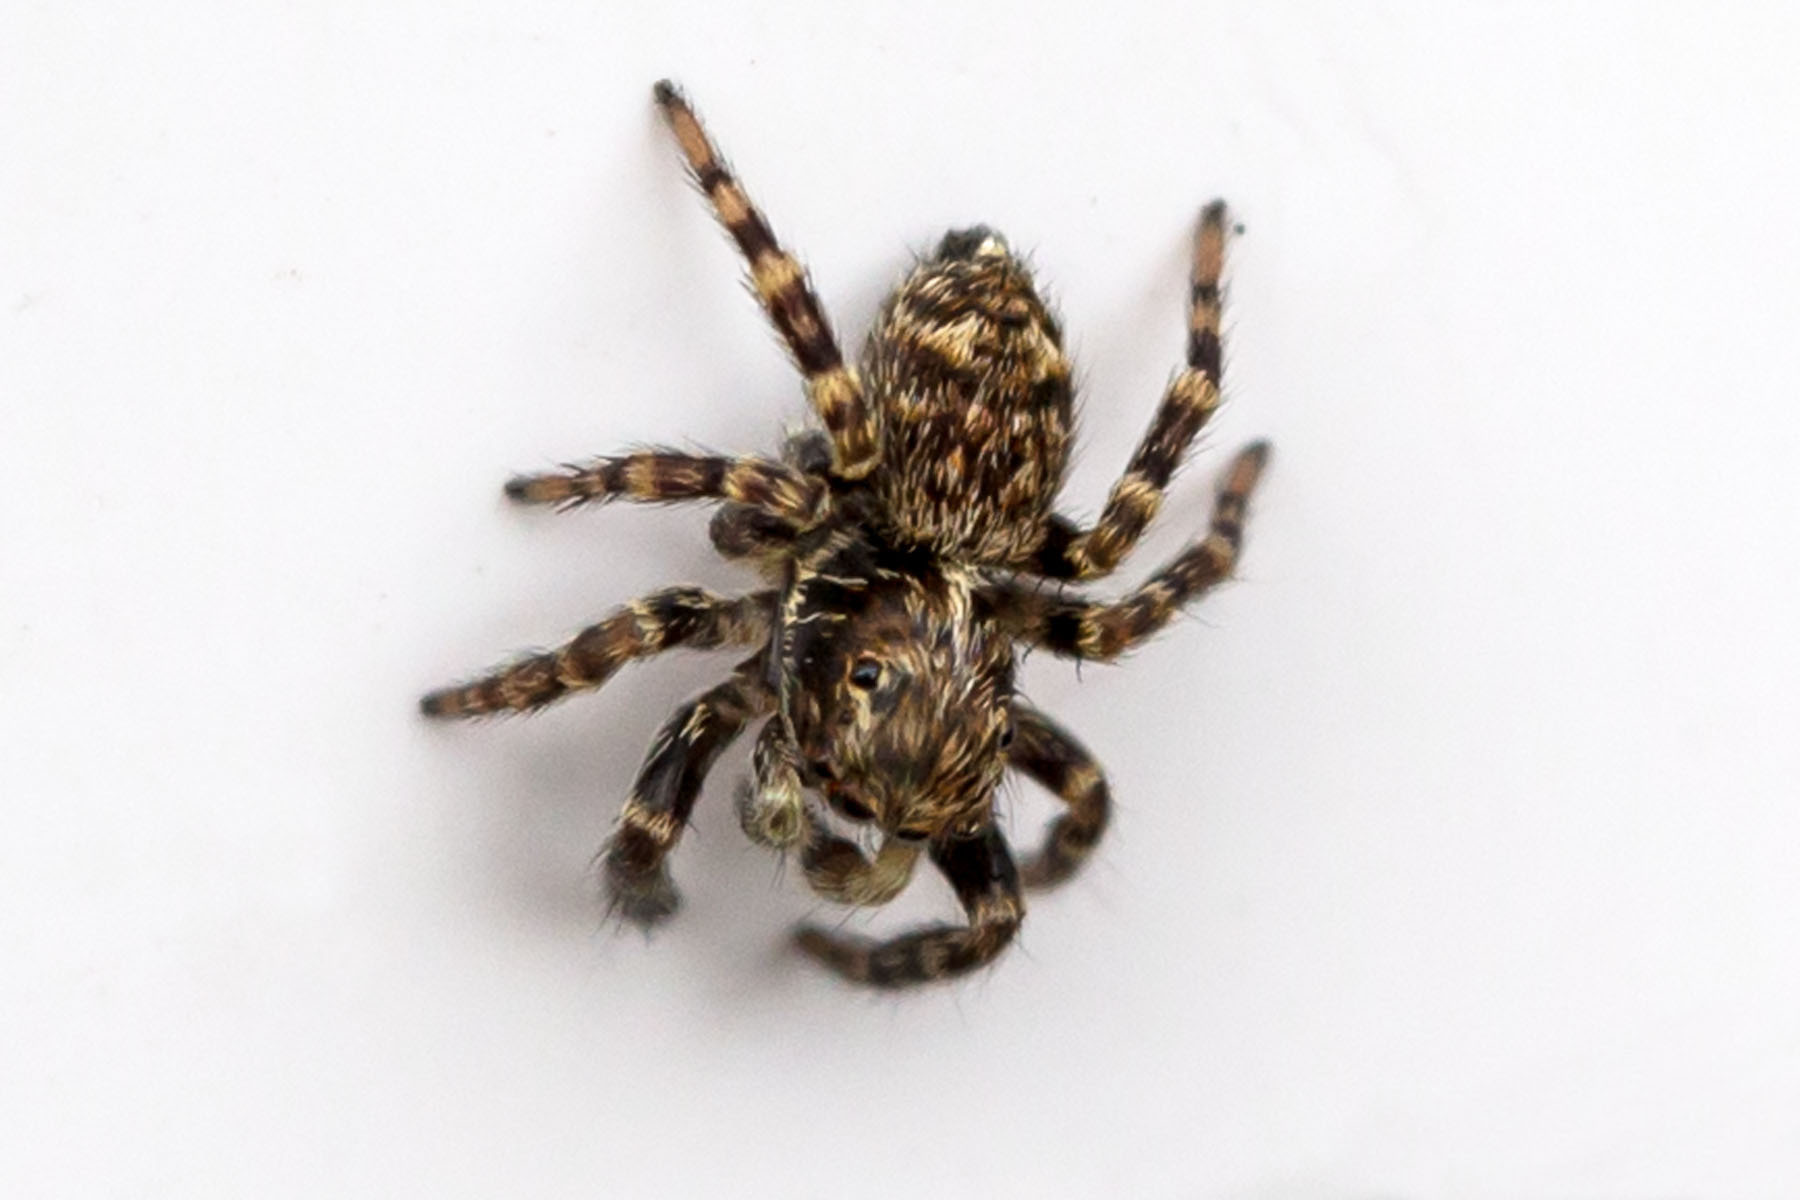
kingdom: Animalia
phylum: Arthropoda
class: Arachnida
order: Araneae
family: Salticidae
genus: Pseudeuophrys
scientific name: Pseudeuophrys erratica
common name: Jumping spider
